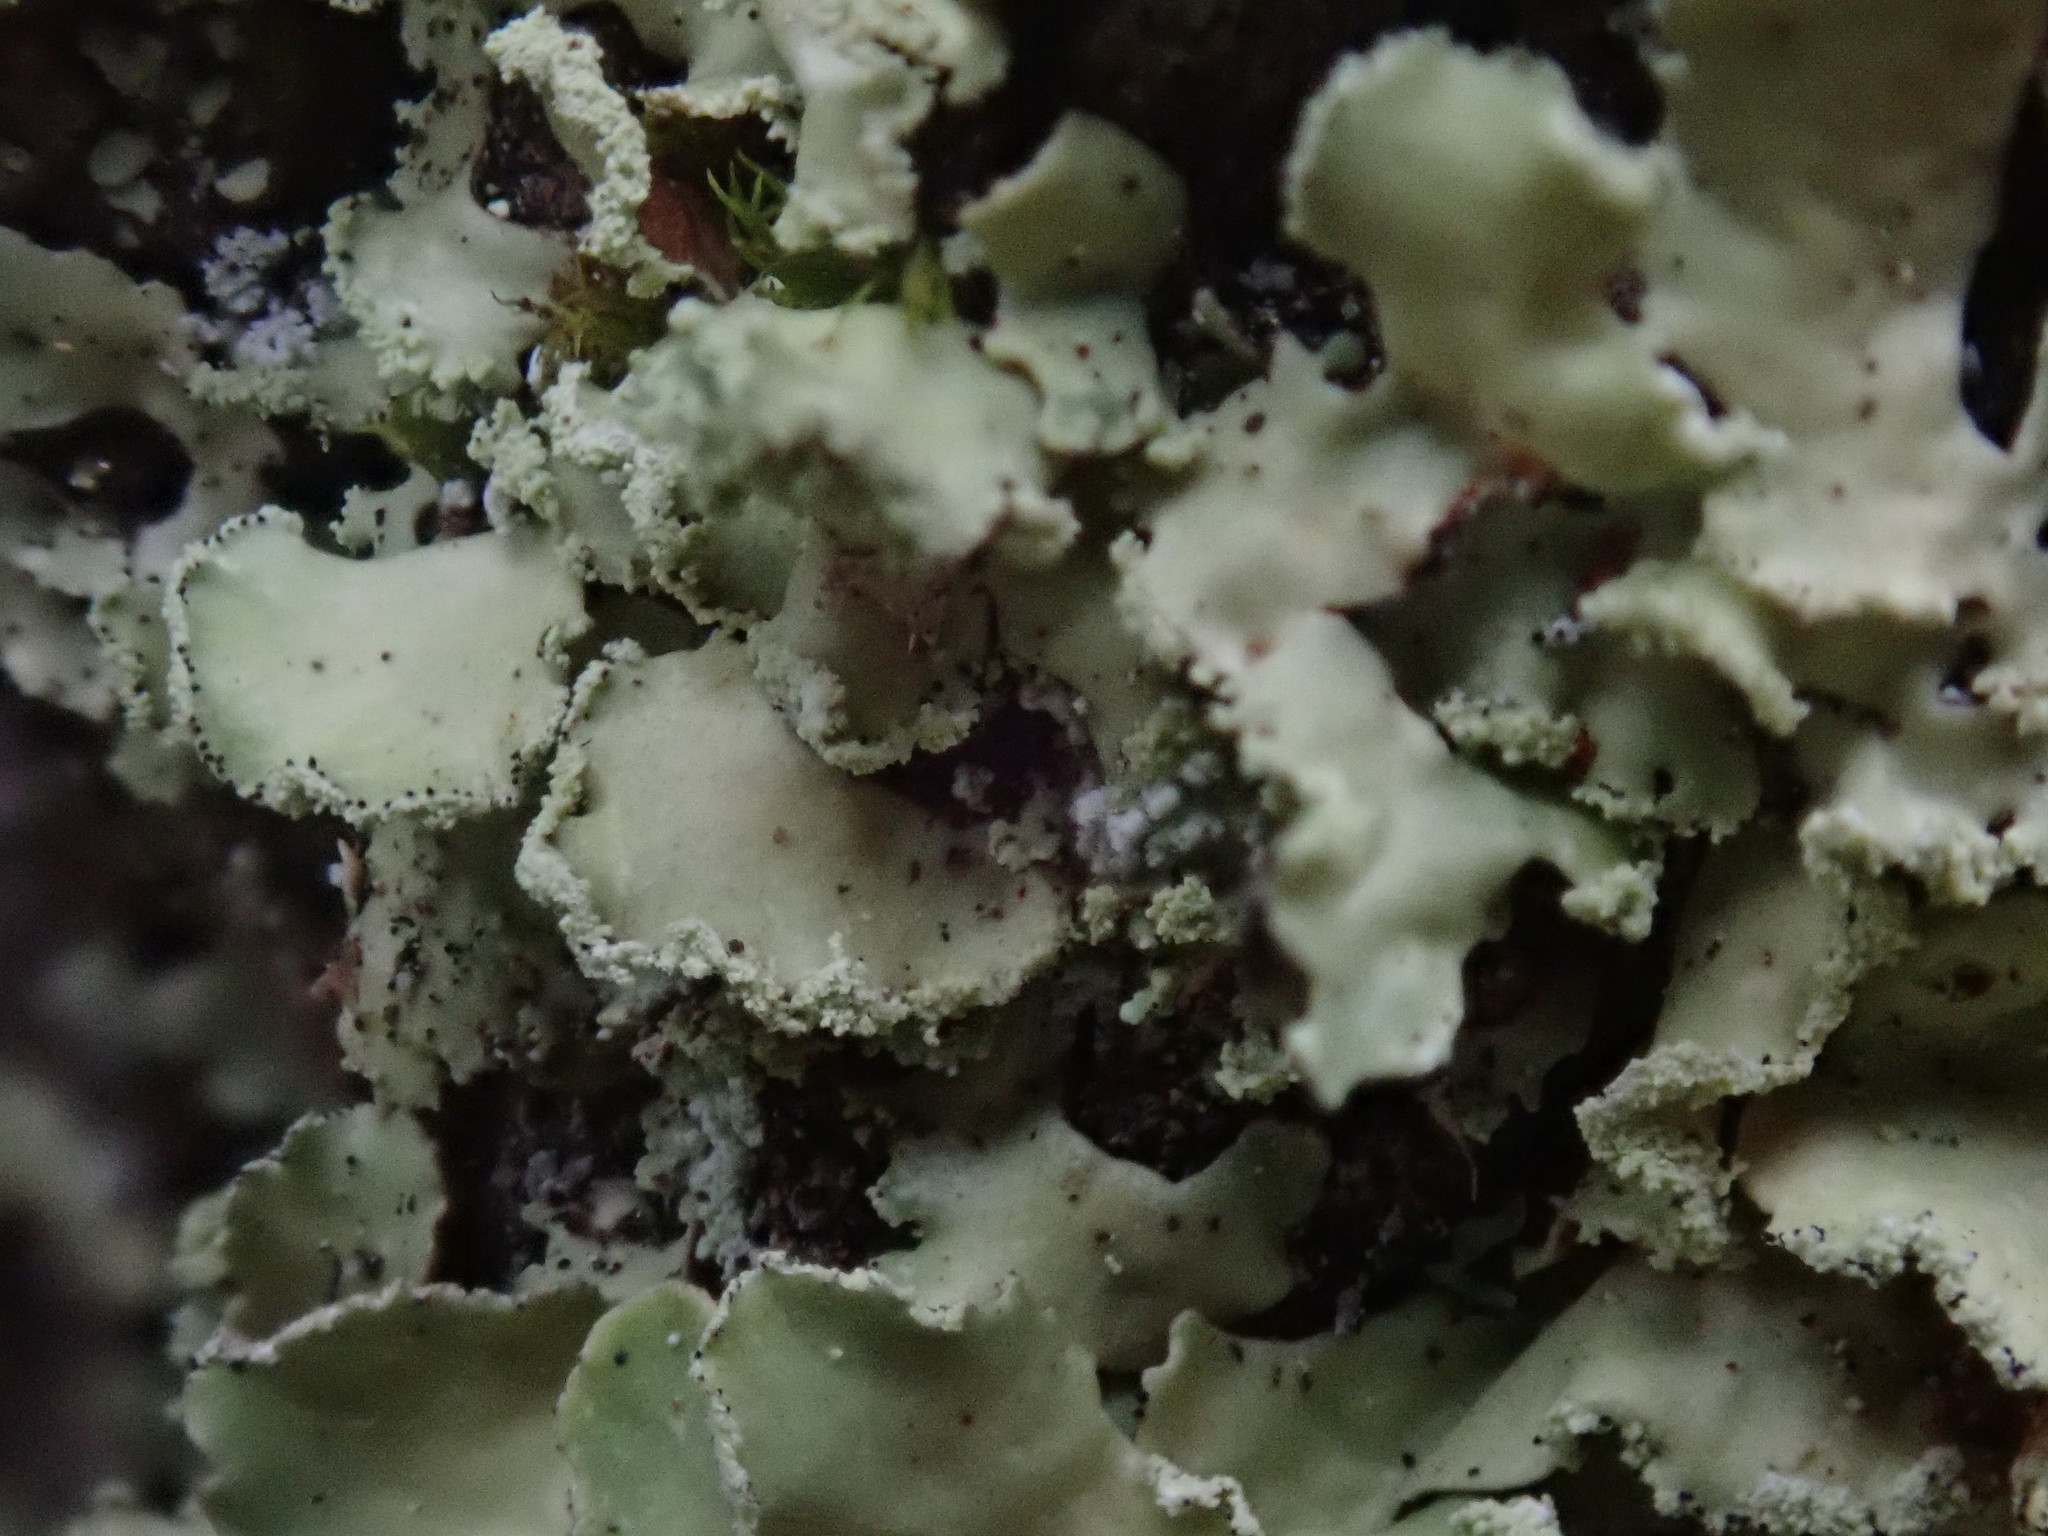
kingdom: Fungi
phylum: Ascomycota
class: Lecanoromycetes
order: Lecanorales
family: Parmeliaceae
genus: Usnocetraria
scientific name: Usnocetraria oakesiana
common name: Yellow ribbon lichen
